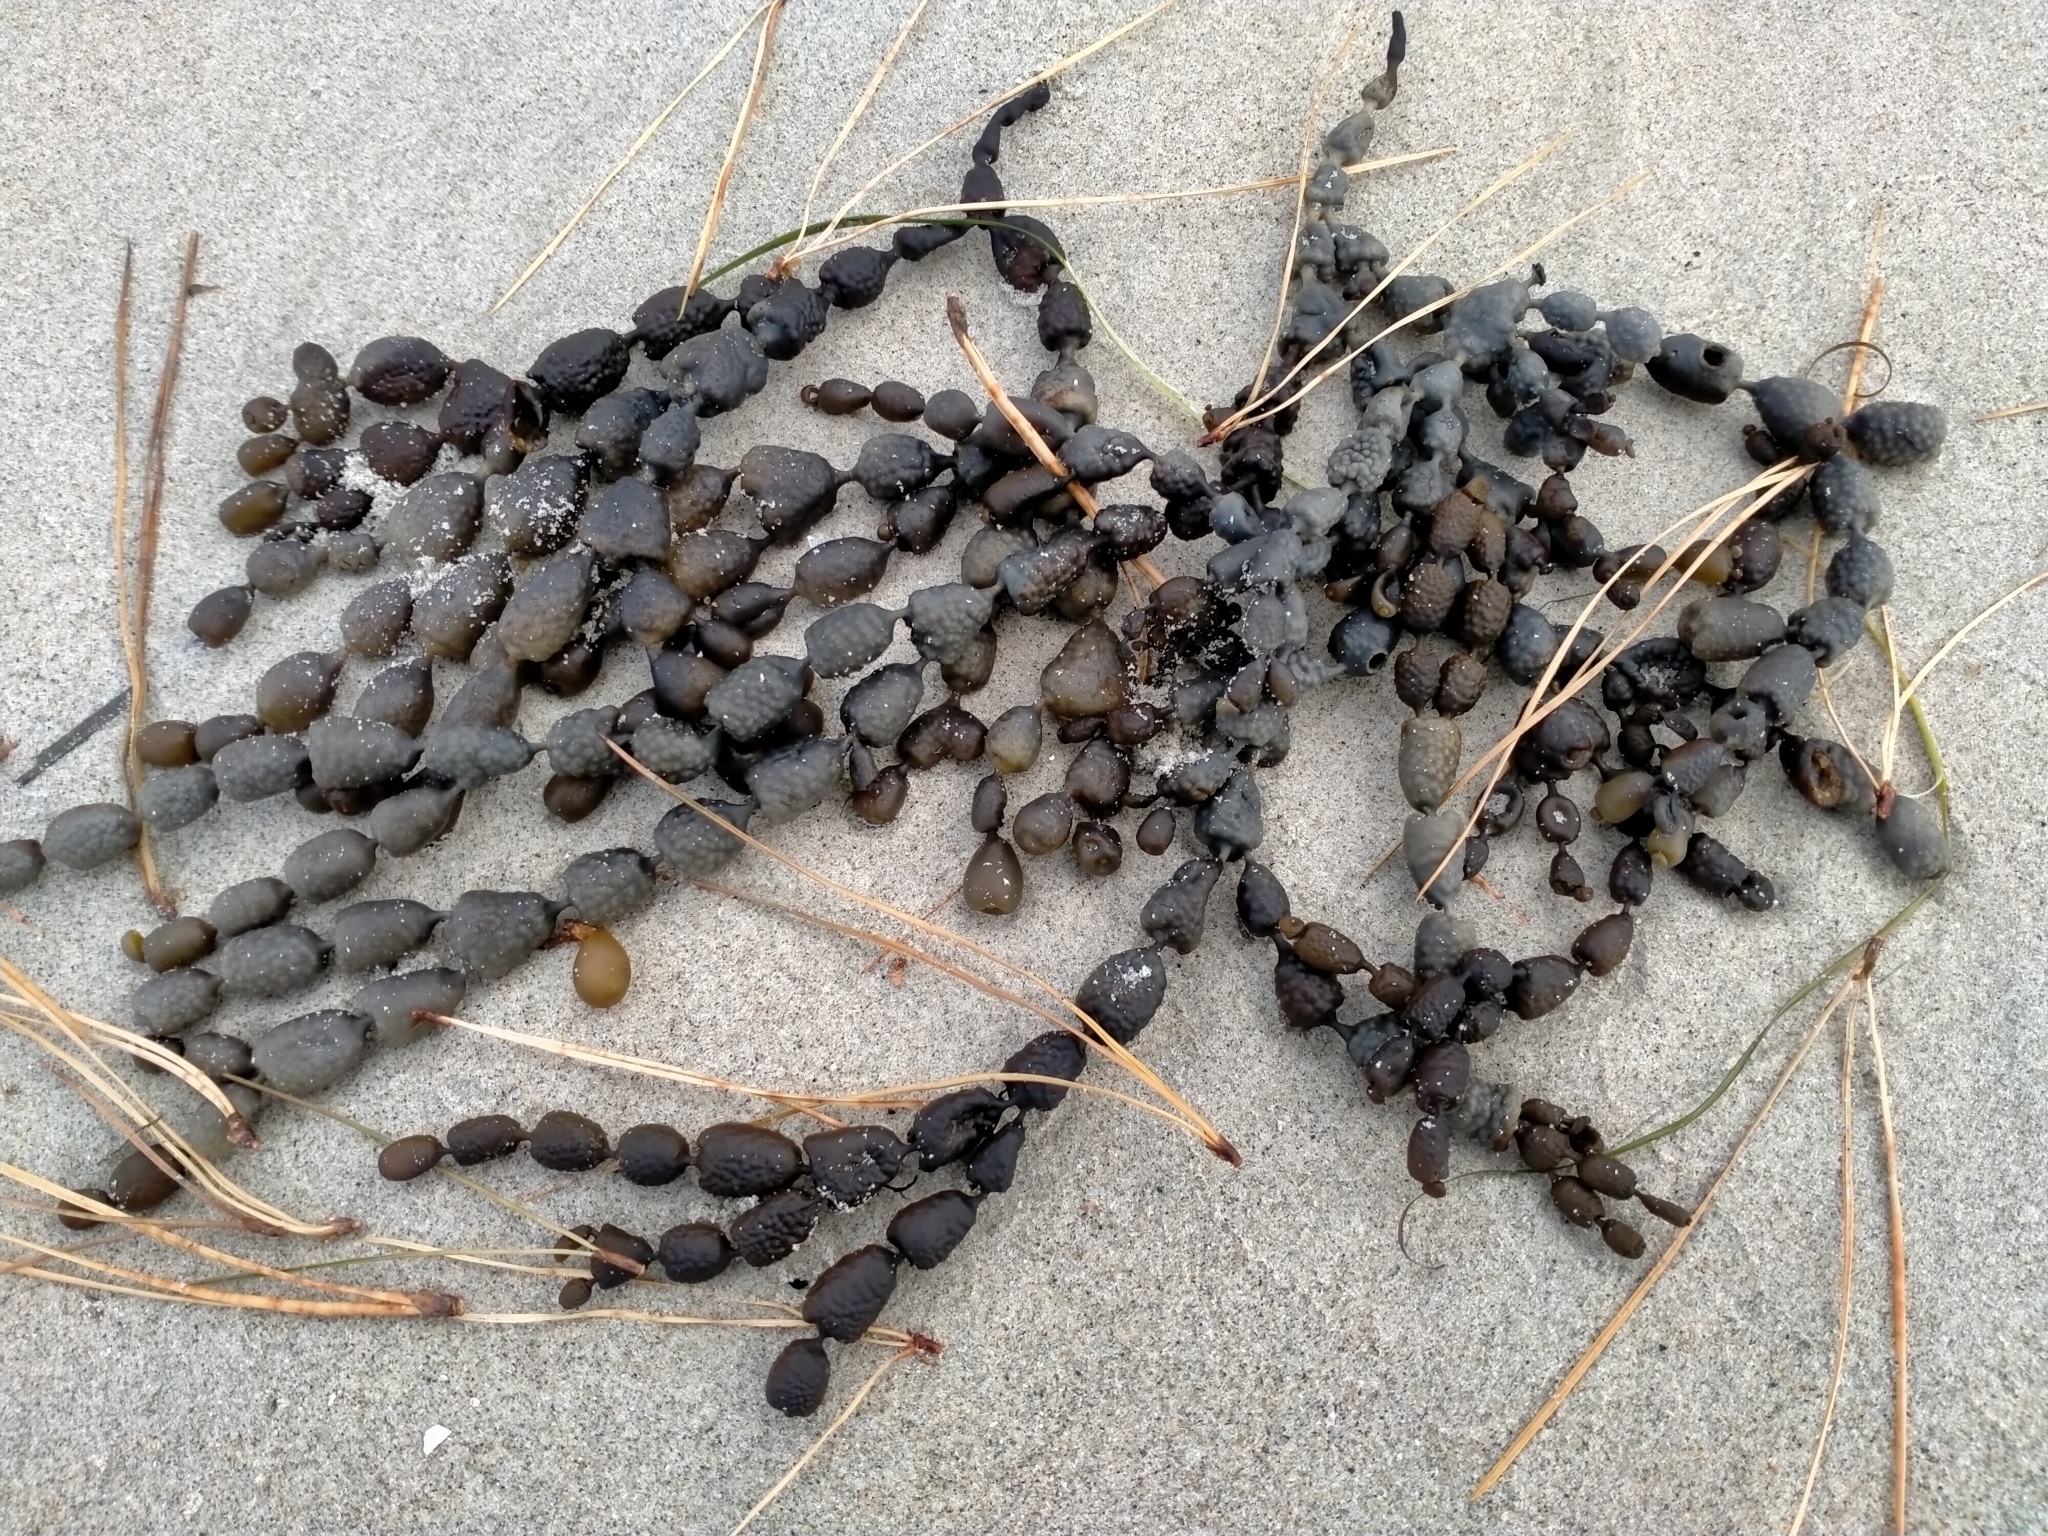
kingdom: Chromista
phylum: Ochrophyta
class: Phaeophyceae
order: Fucales
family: Hormosiraceae
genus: Hormosira
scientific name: Hormosira banksii
